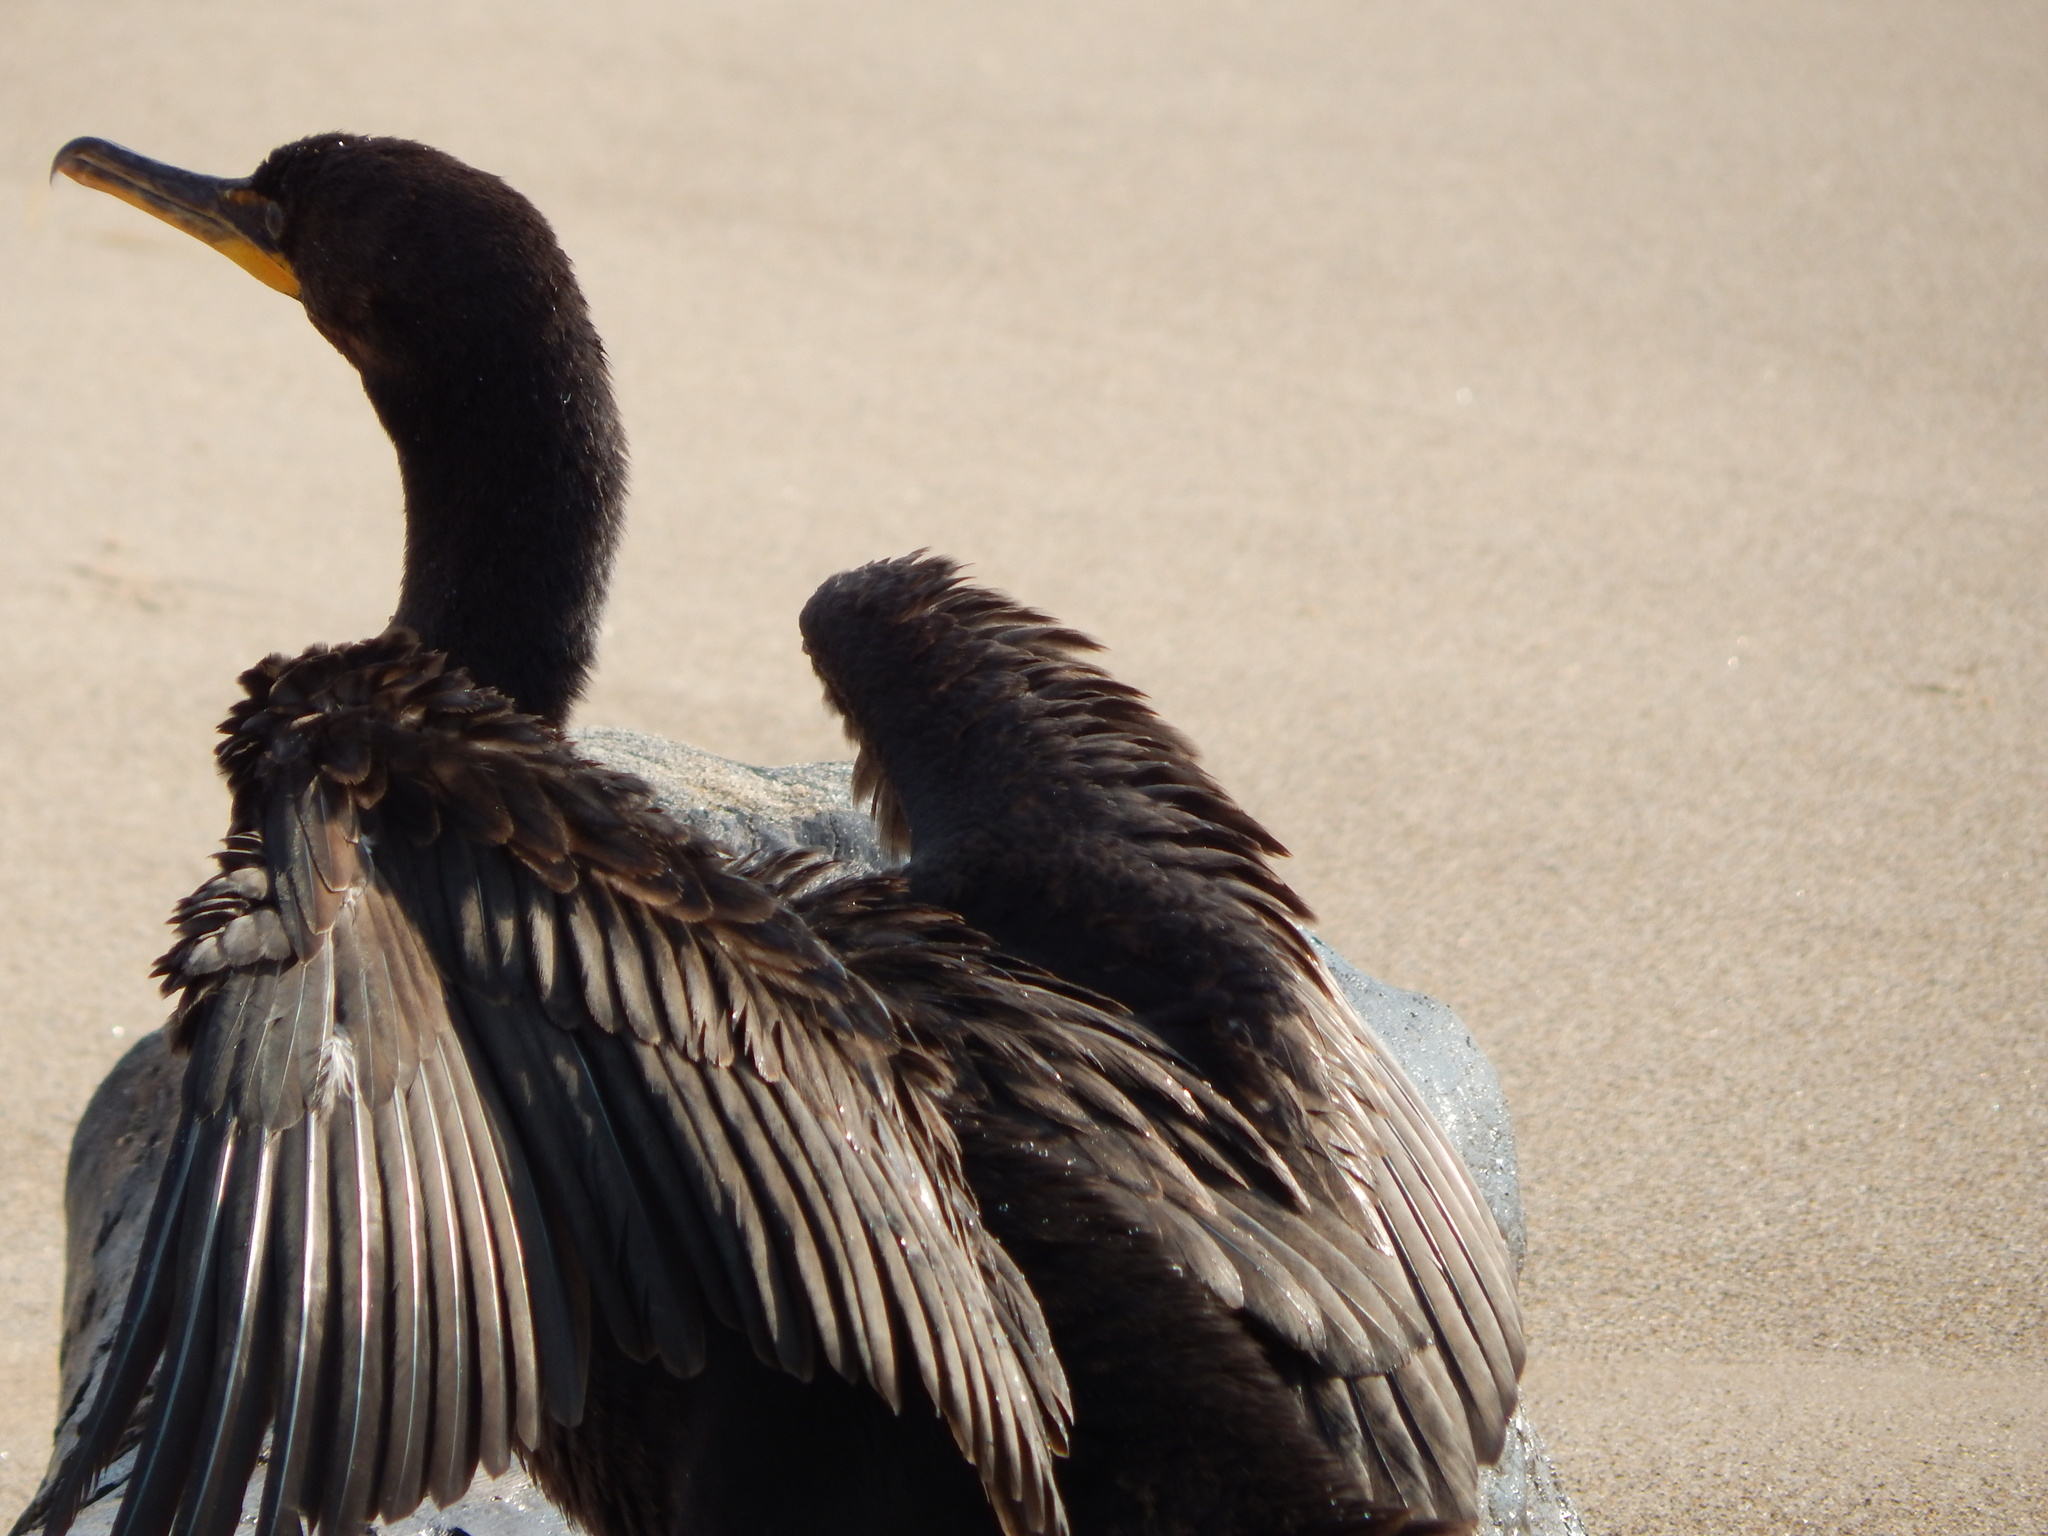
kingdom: Animalia
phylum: Chordata
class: Aves
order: Suliformes
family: Phalacrocoracidae
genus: Phalacrocorax
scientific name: Phalacrocorax auritus
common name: Double-crested cormorant
